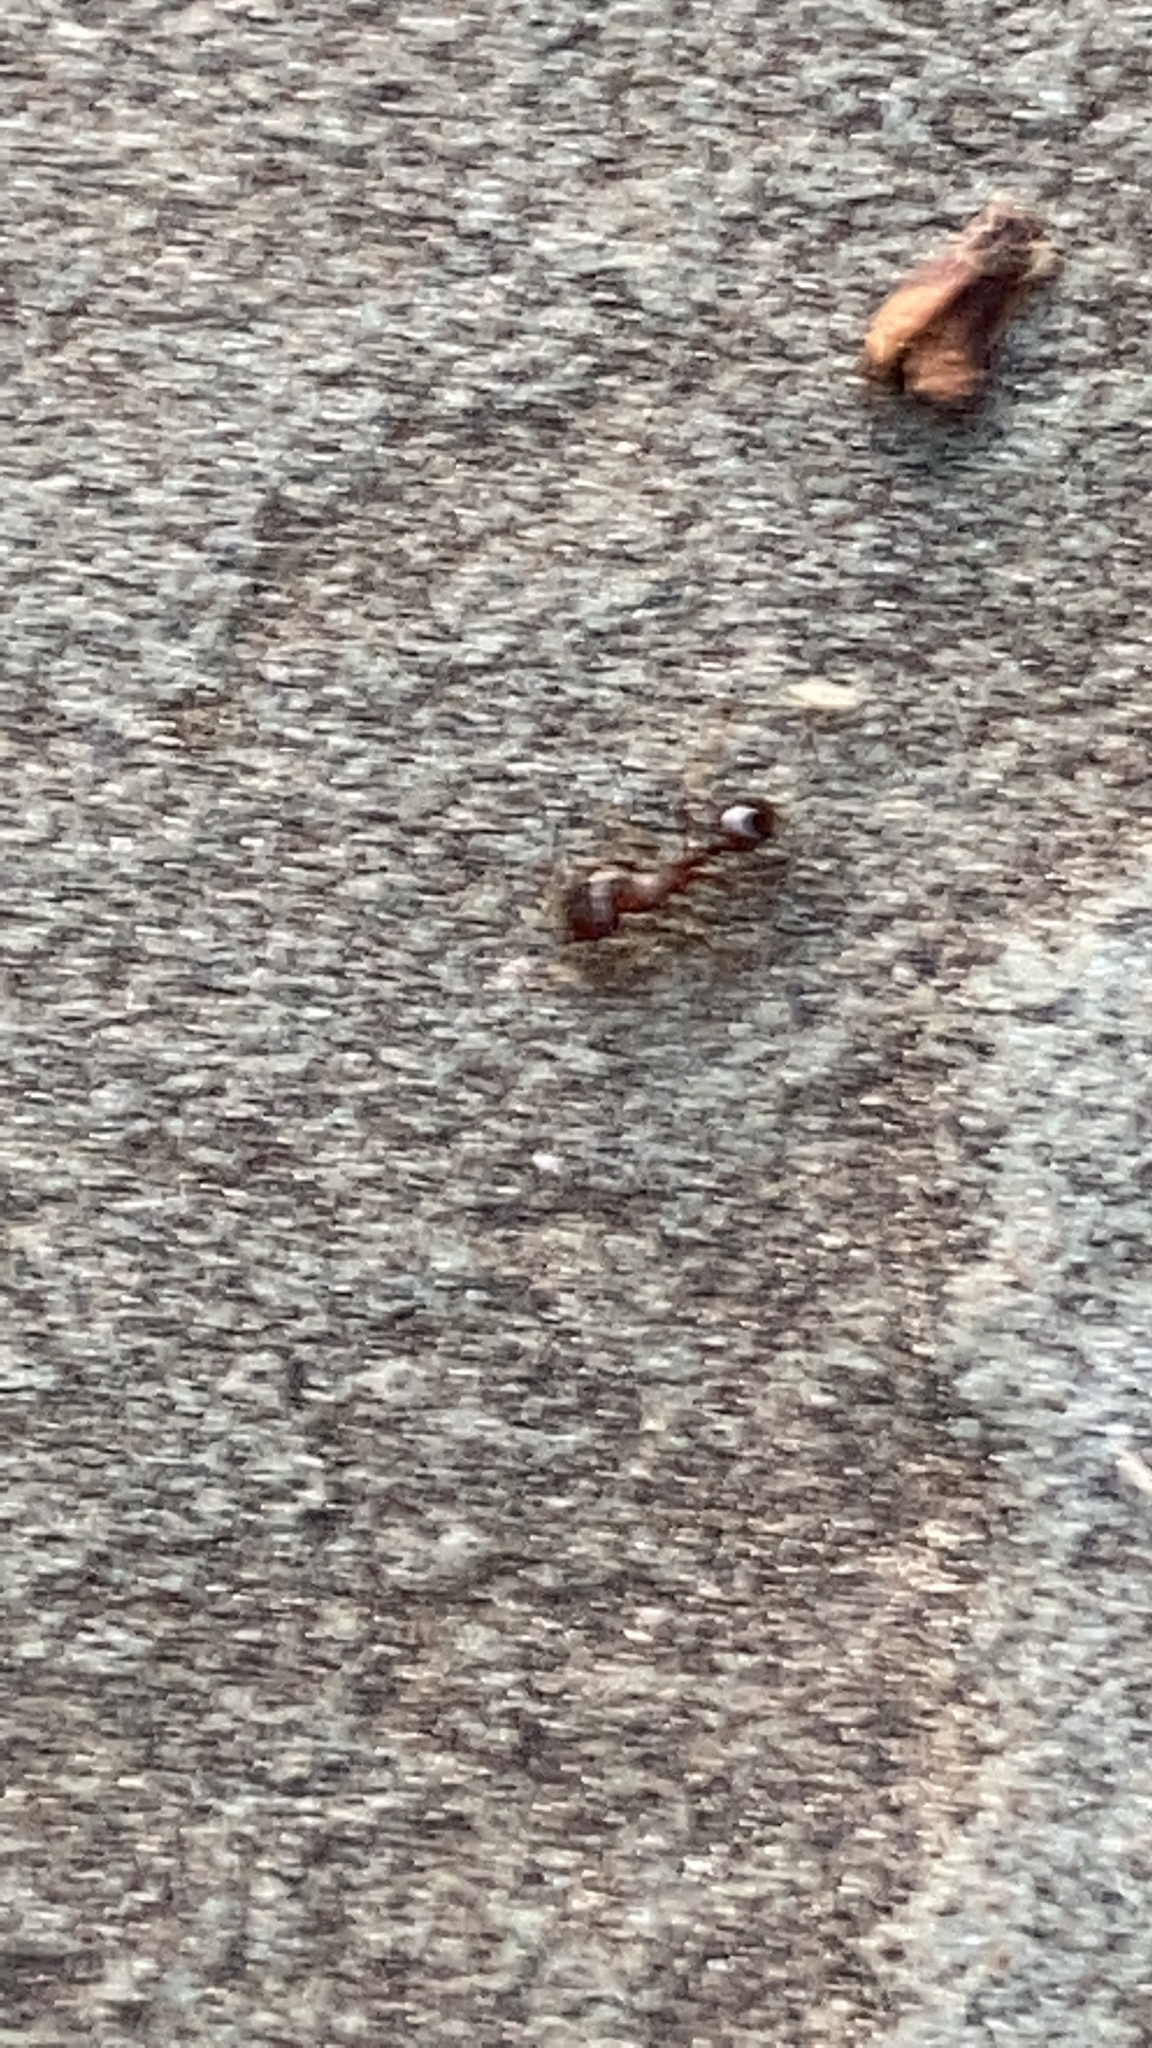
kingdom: Animalia
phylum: Arthropoda
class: Insecta
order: Hymenoptera
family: Formicidae
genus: Tetramorium
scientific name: Tetramorium immigrans
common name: Pavement ant
